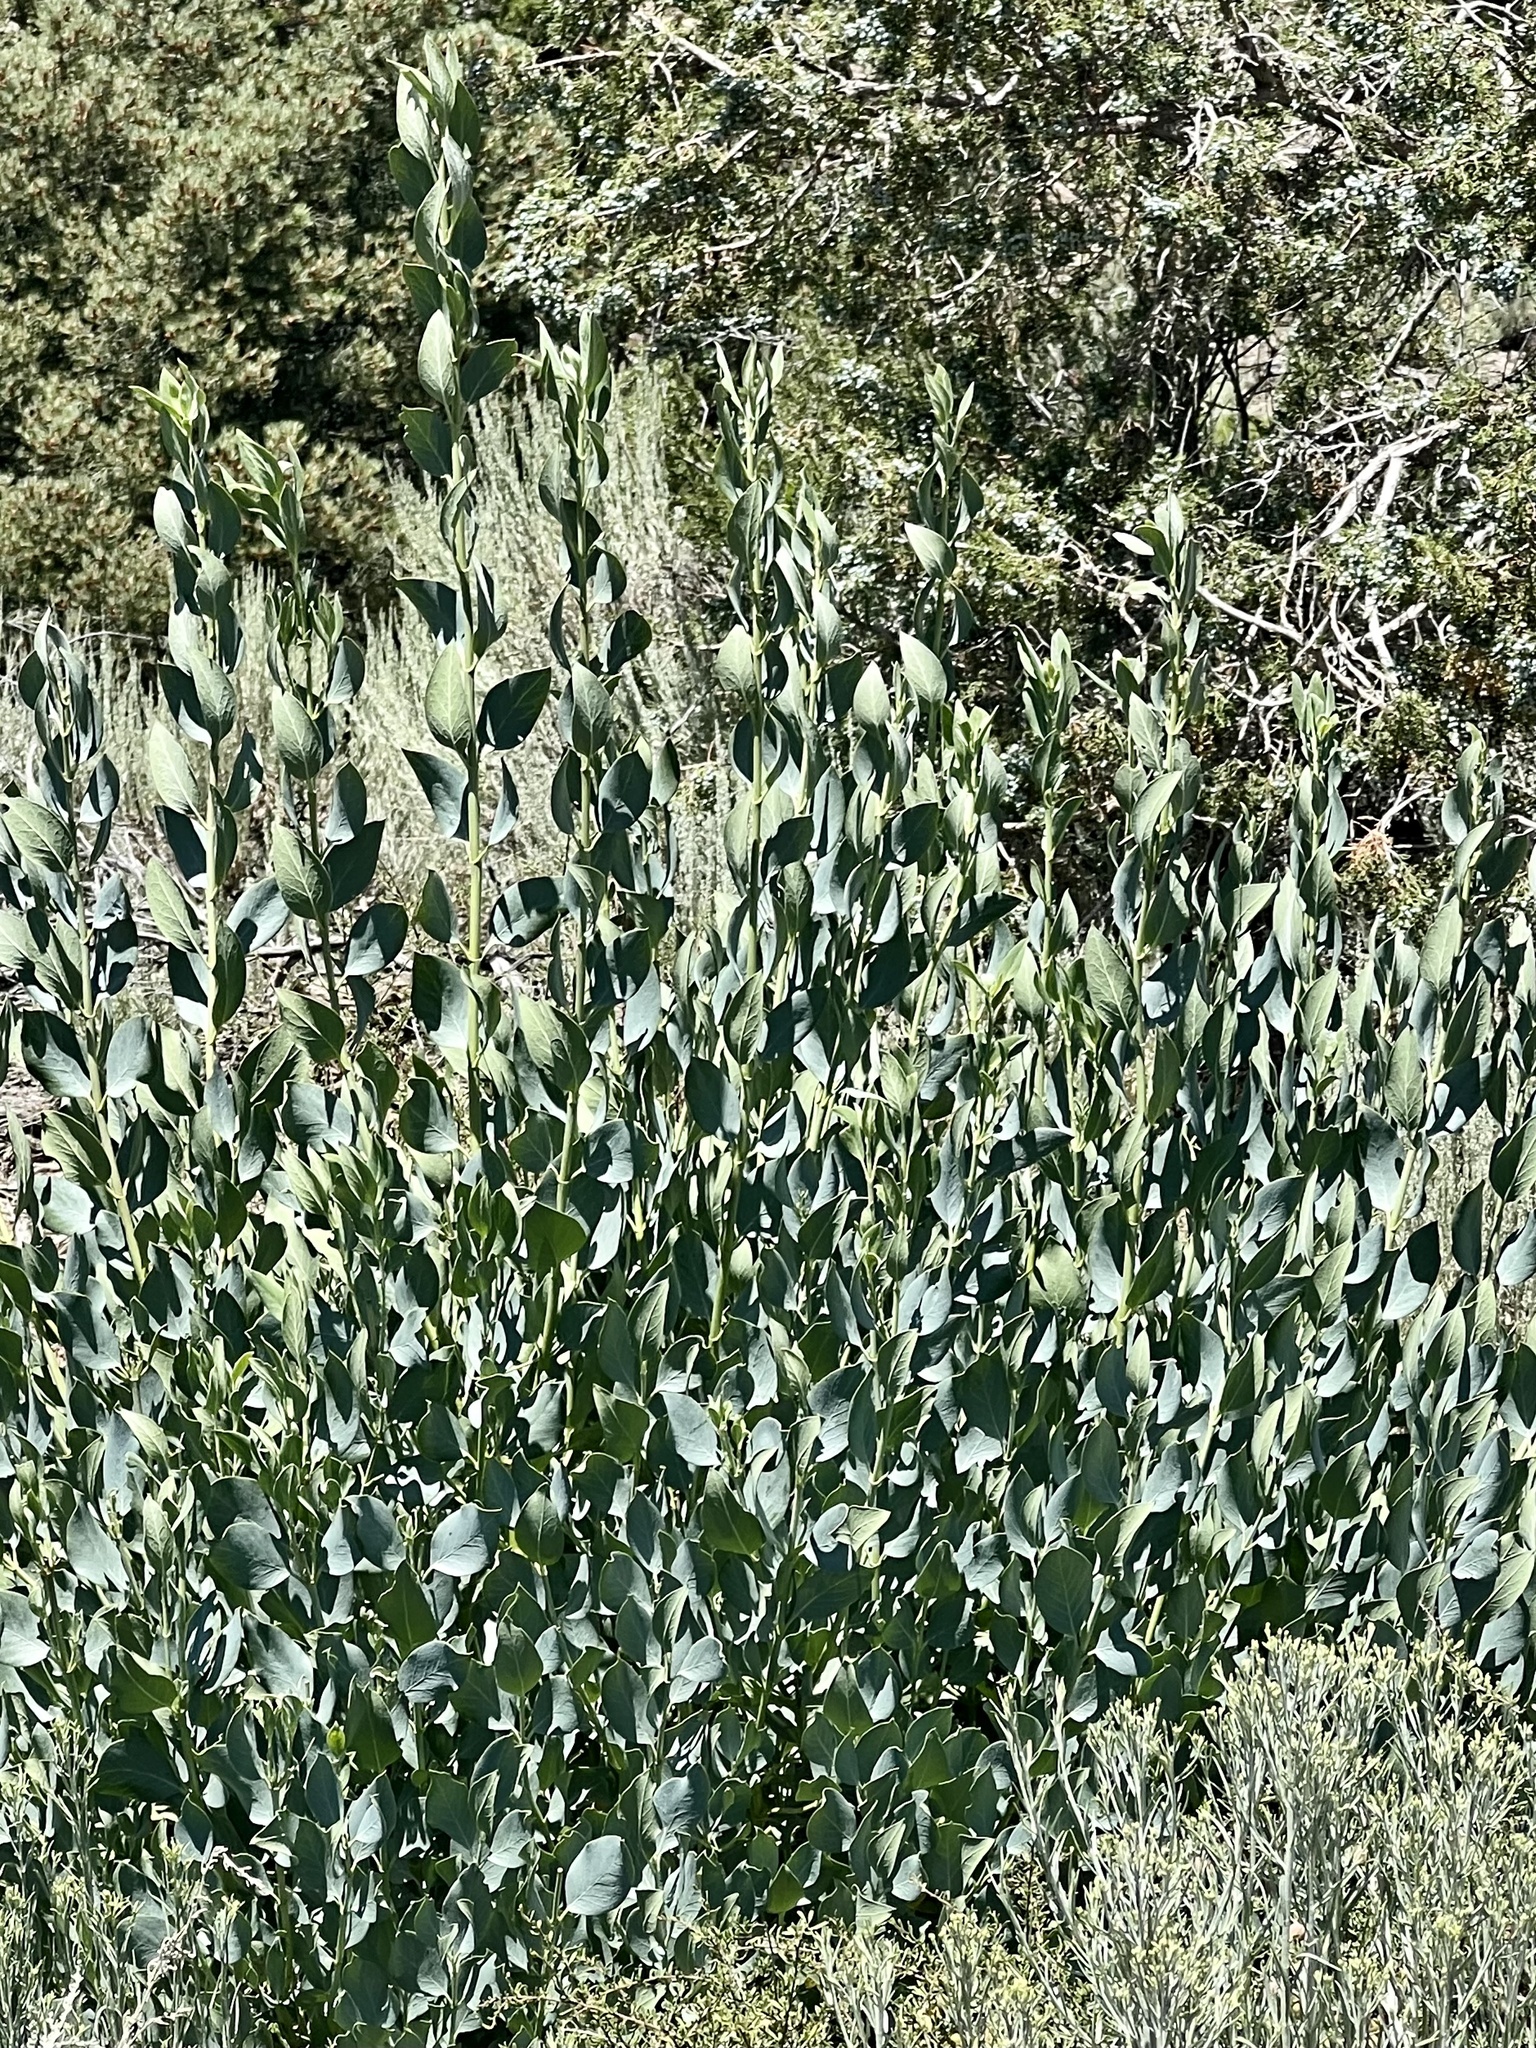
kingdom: Plantae
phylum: Tracheophyta
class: Magnoliopsida
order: Garryales
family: Garryaceae
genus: Garrya
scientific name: Garrya flavescens
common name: Ashy silk-tassel
